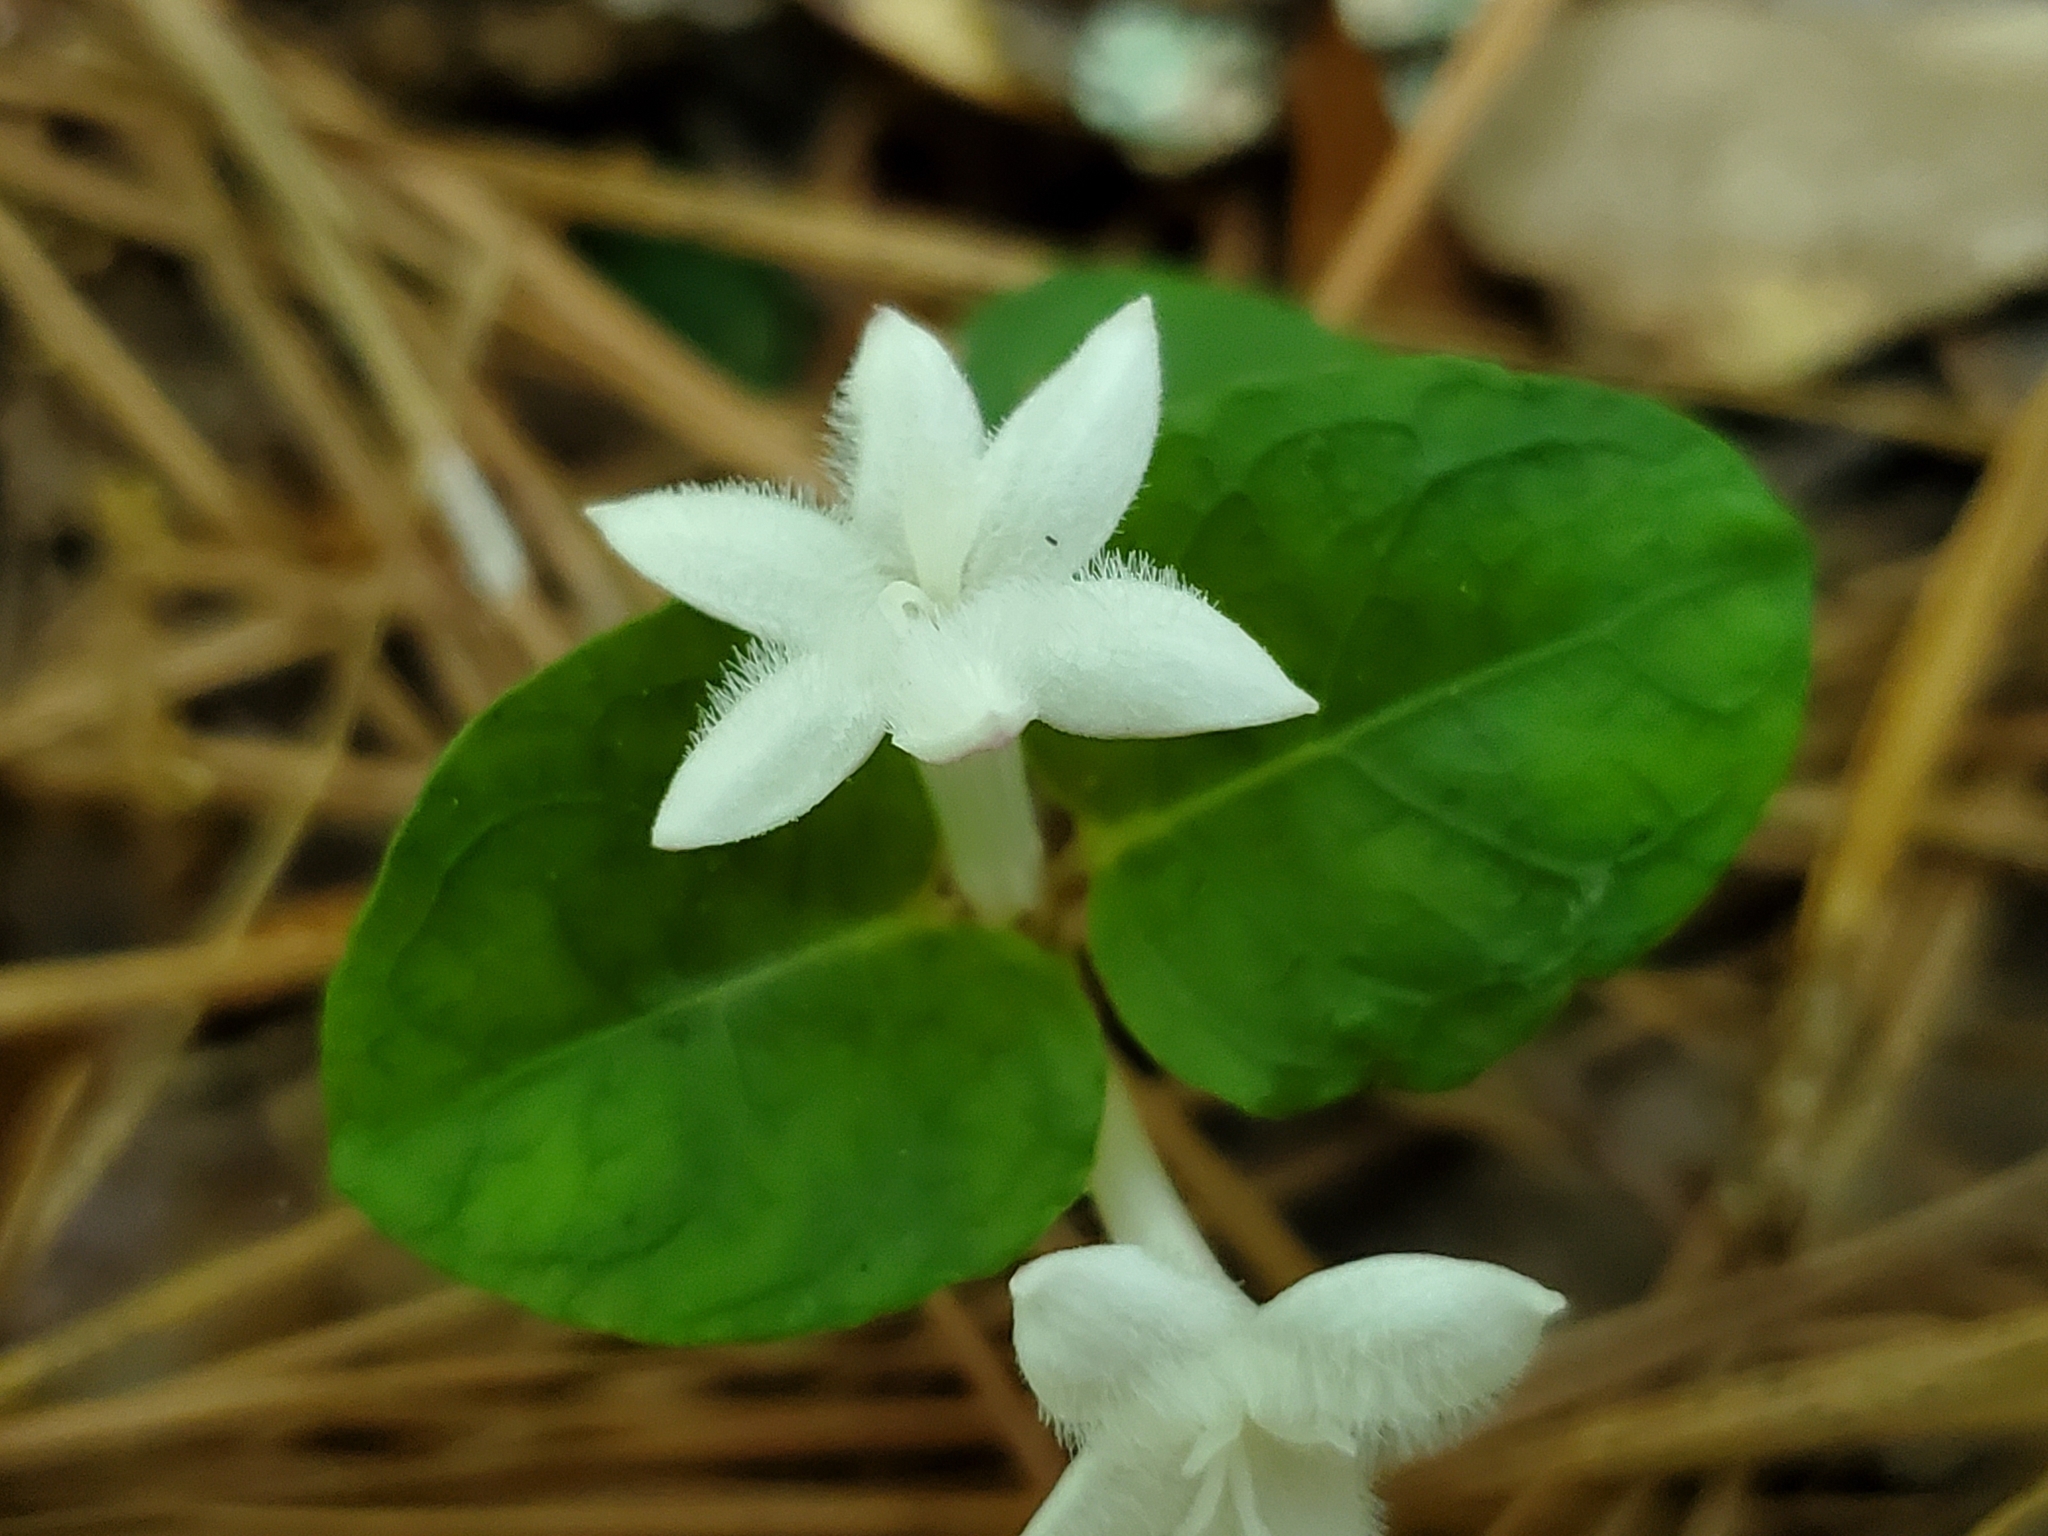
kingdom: Plantae
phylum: Tracheophyta
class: Magnoliopsida
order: Gentianales
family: Rubiaceae
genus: Mitchella
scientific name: Mitchella repens
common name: Partridge-berry
